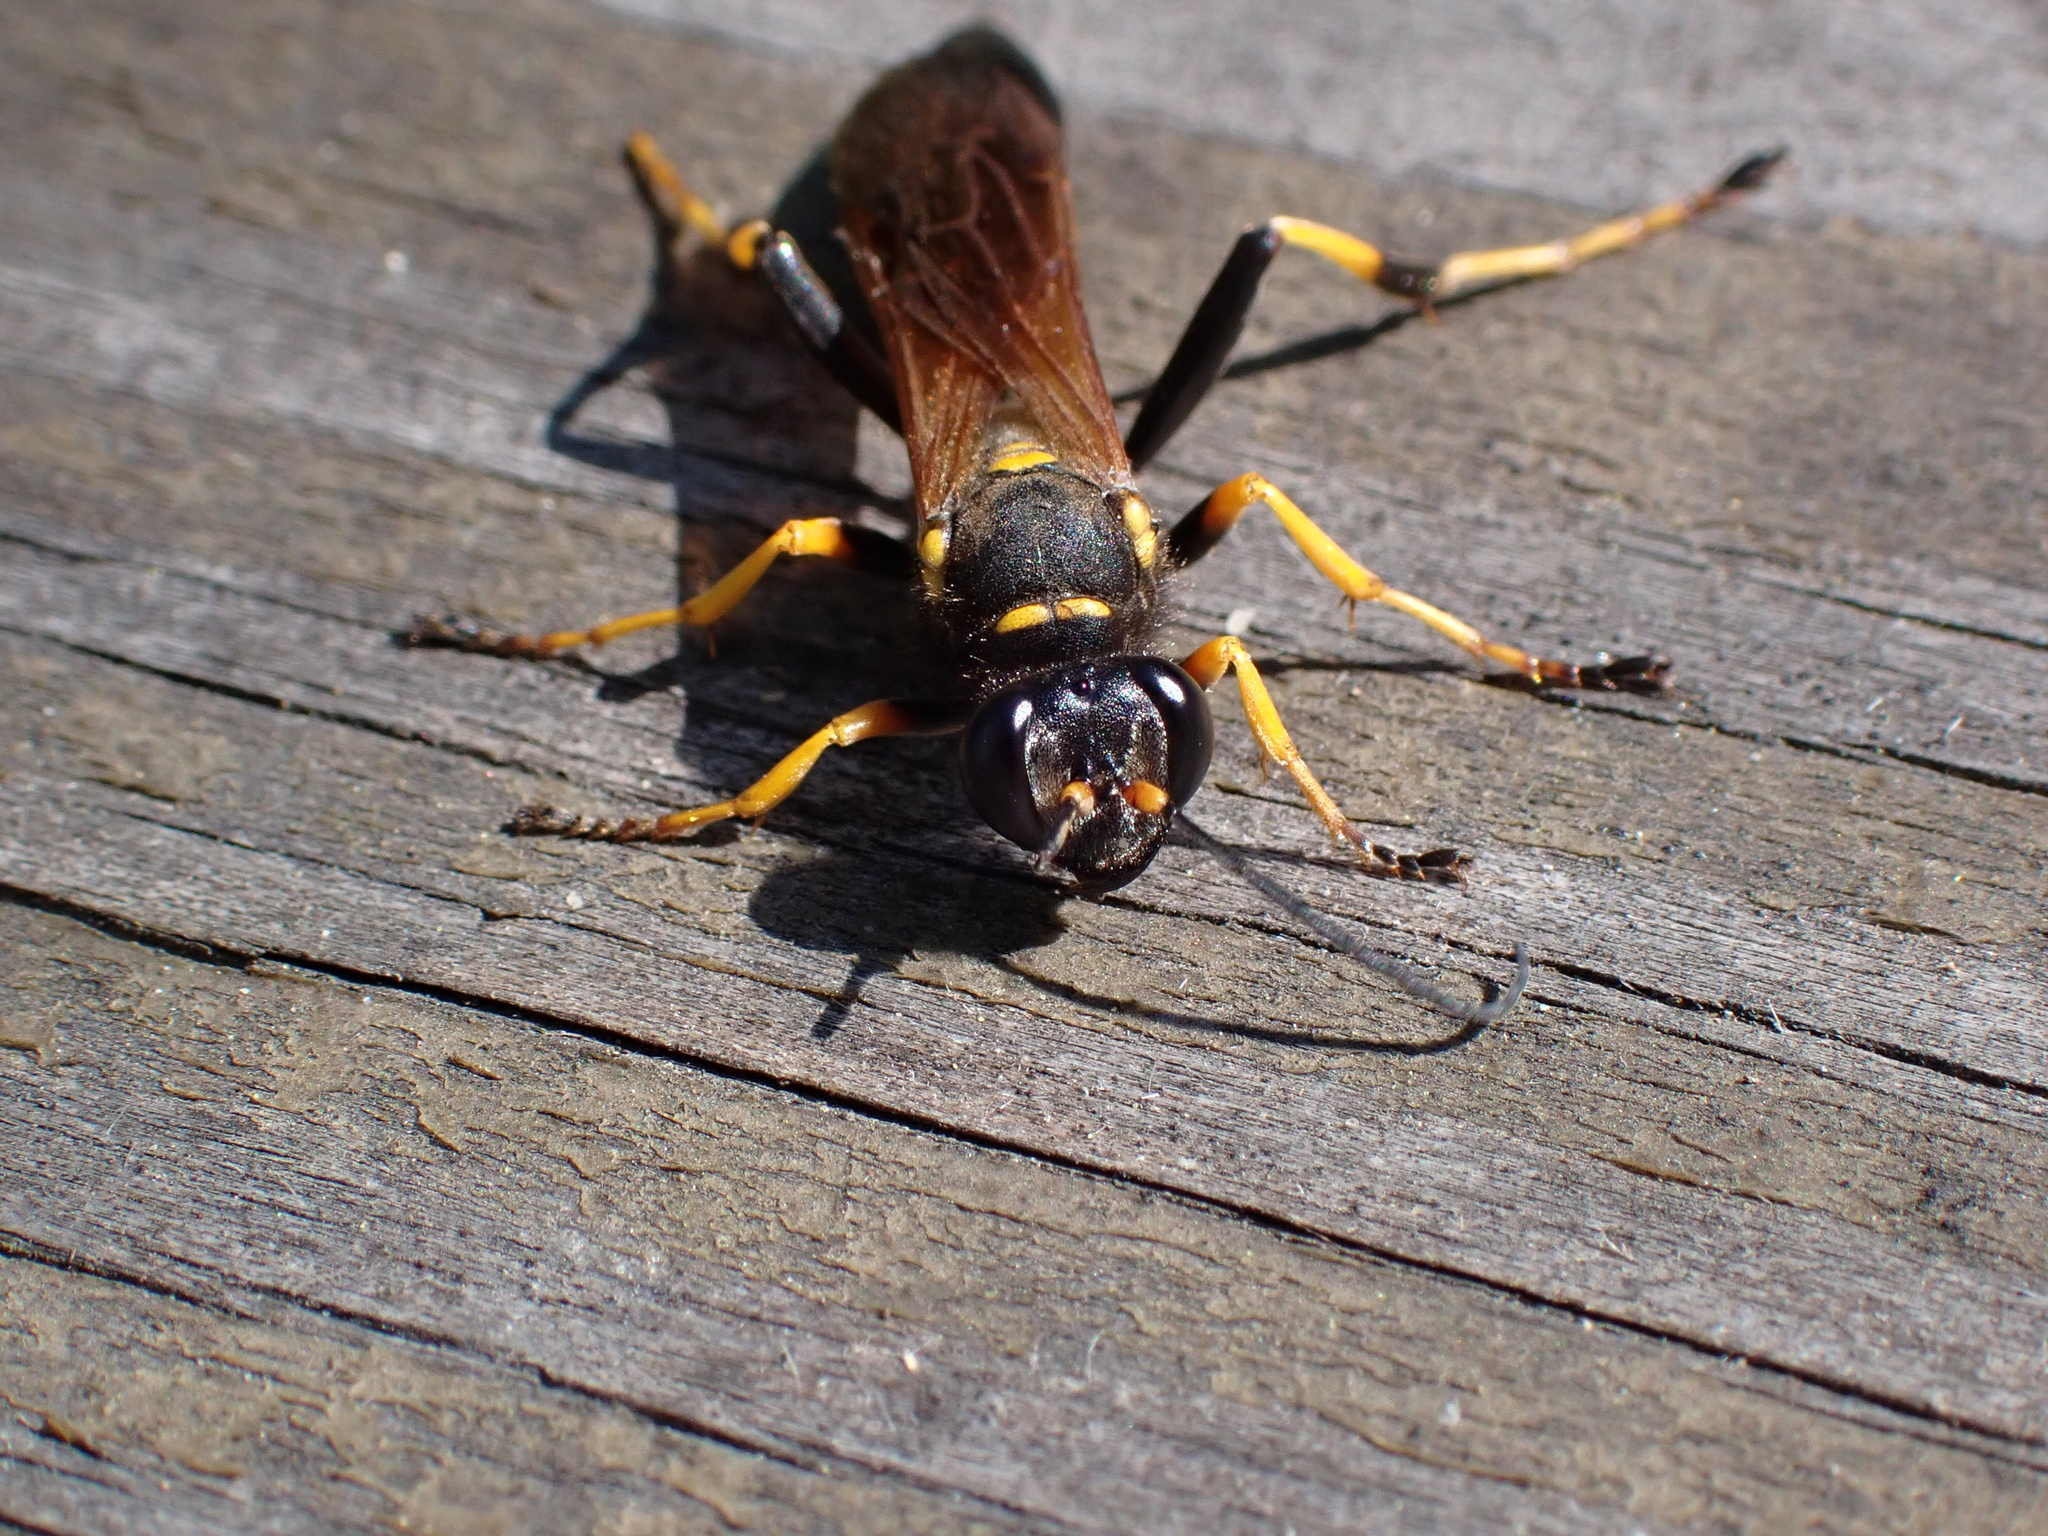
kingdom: Animalia
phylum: Arthropoda
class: Insecta
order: Hymenoptera
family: Sphecidae
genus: Sceliphron
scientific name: Sceliphron caementarium
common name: Mud dauber
